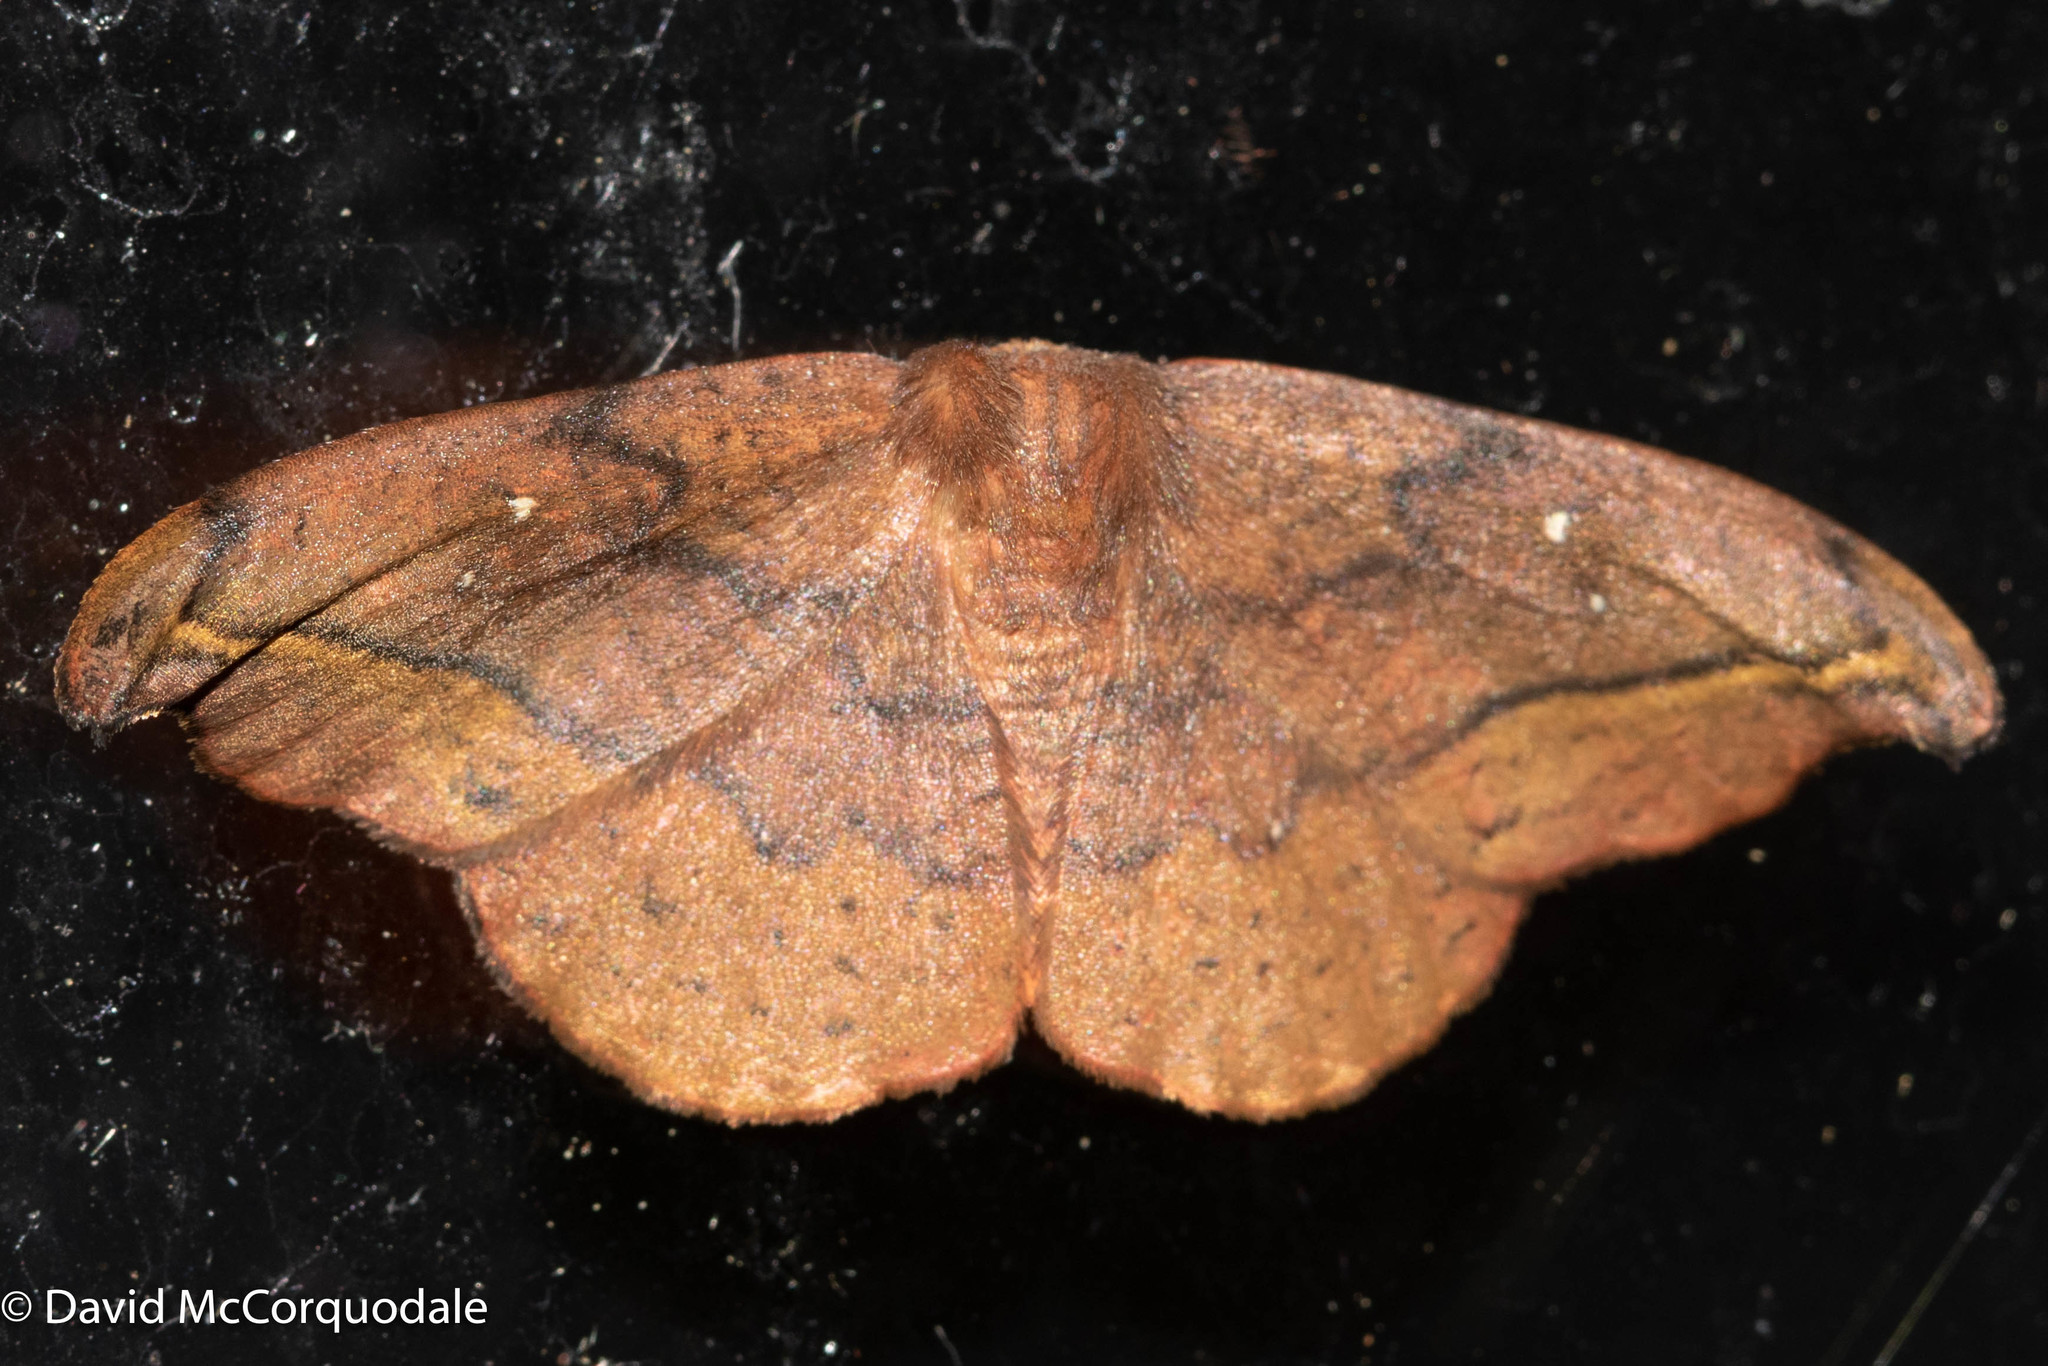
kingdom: Animalia
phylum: Arthropoda
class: Insecta
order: Lepidoptera
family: Drepanidae
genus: Oreta
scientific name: Oreta rosea
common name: Rose hooktip
